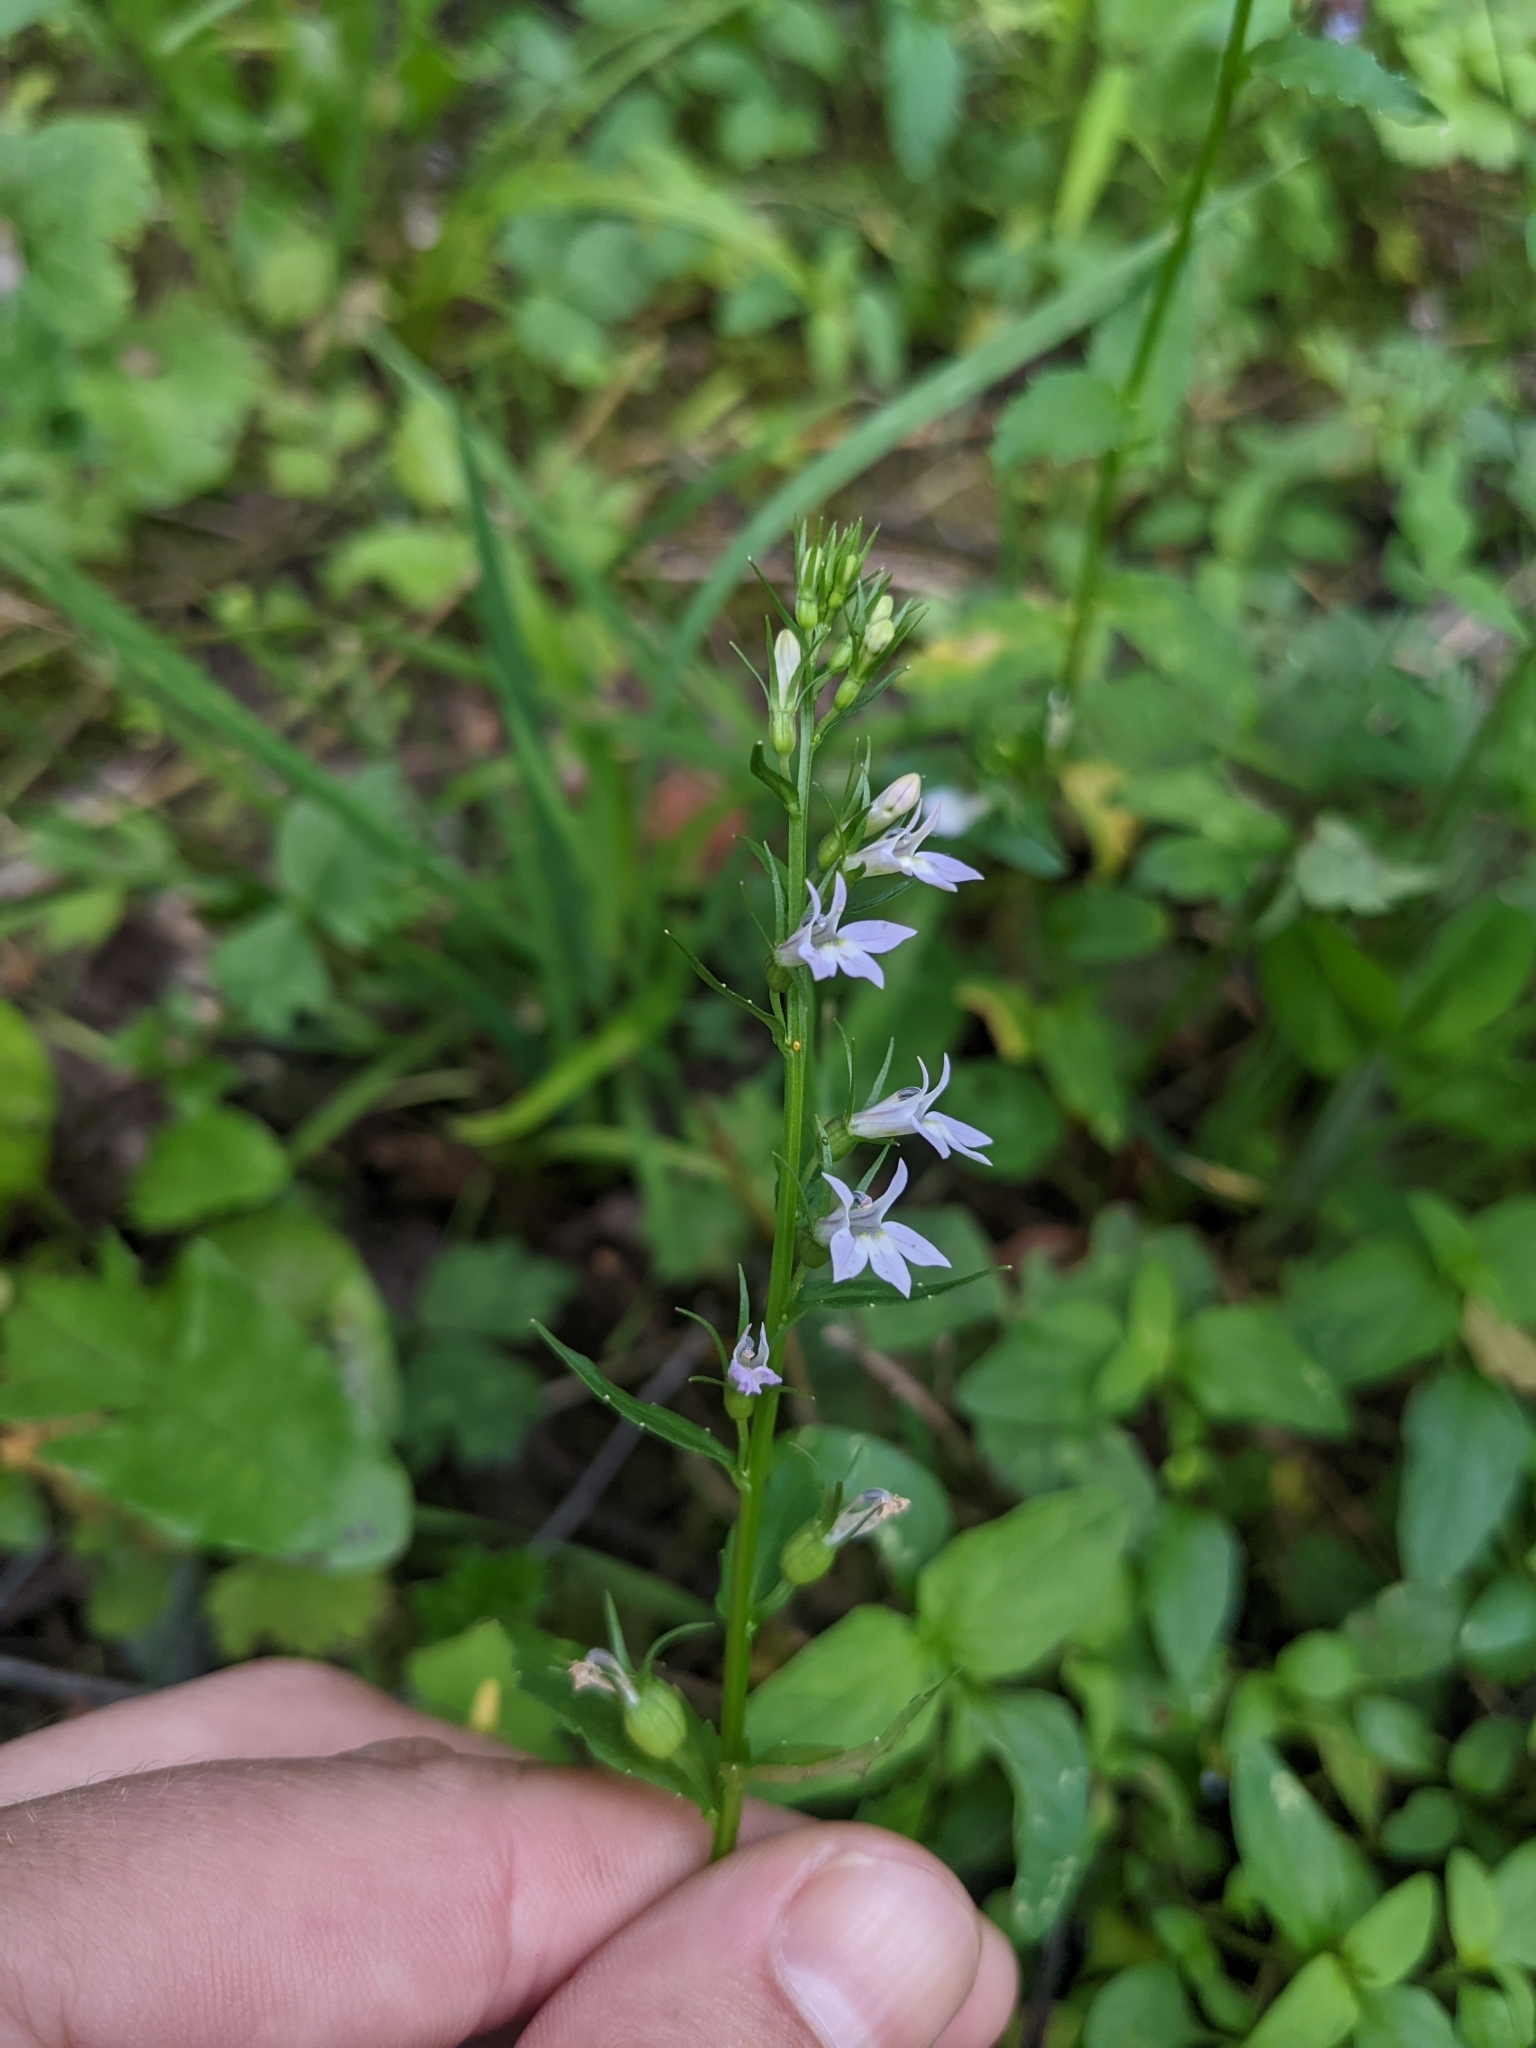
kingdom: Plantae
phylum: Tracheophyta
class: Magnoliopsida
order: Asterales
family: Campanulaceae
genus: Lobelia
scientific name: Lobelia inflata
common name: Indian tobacco
